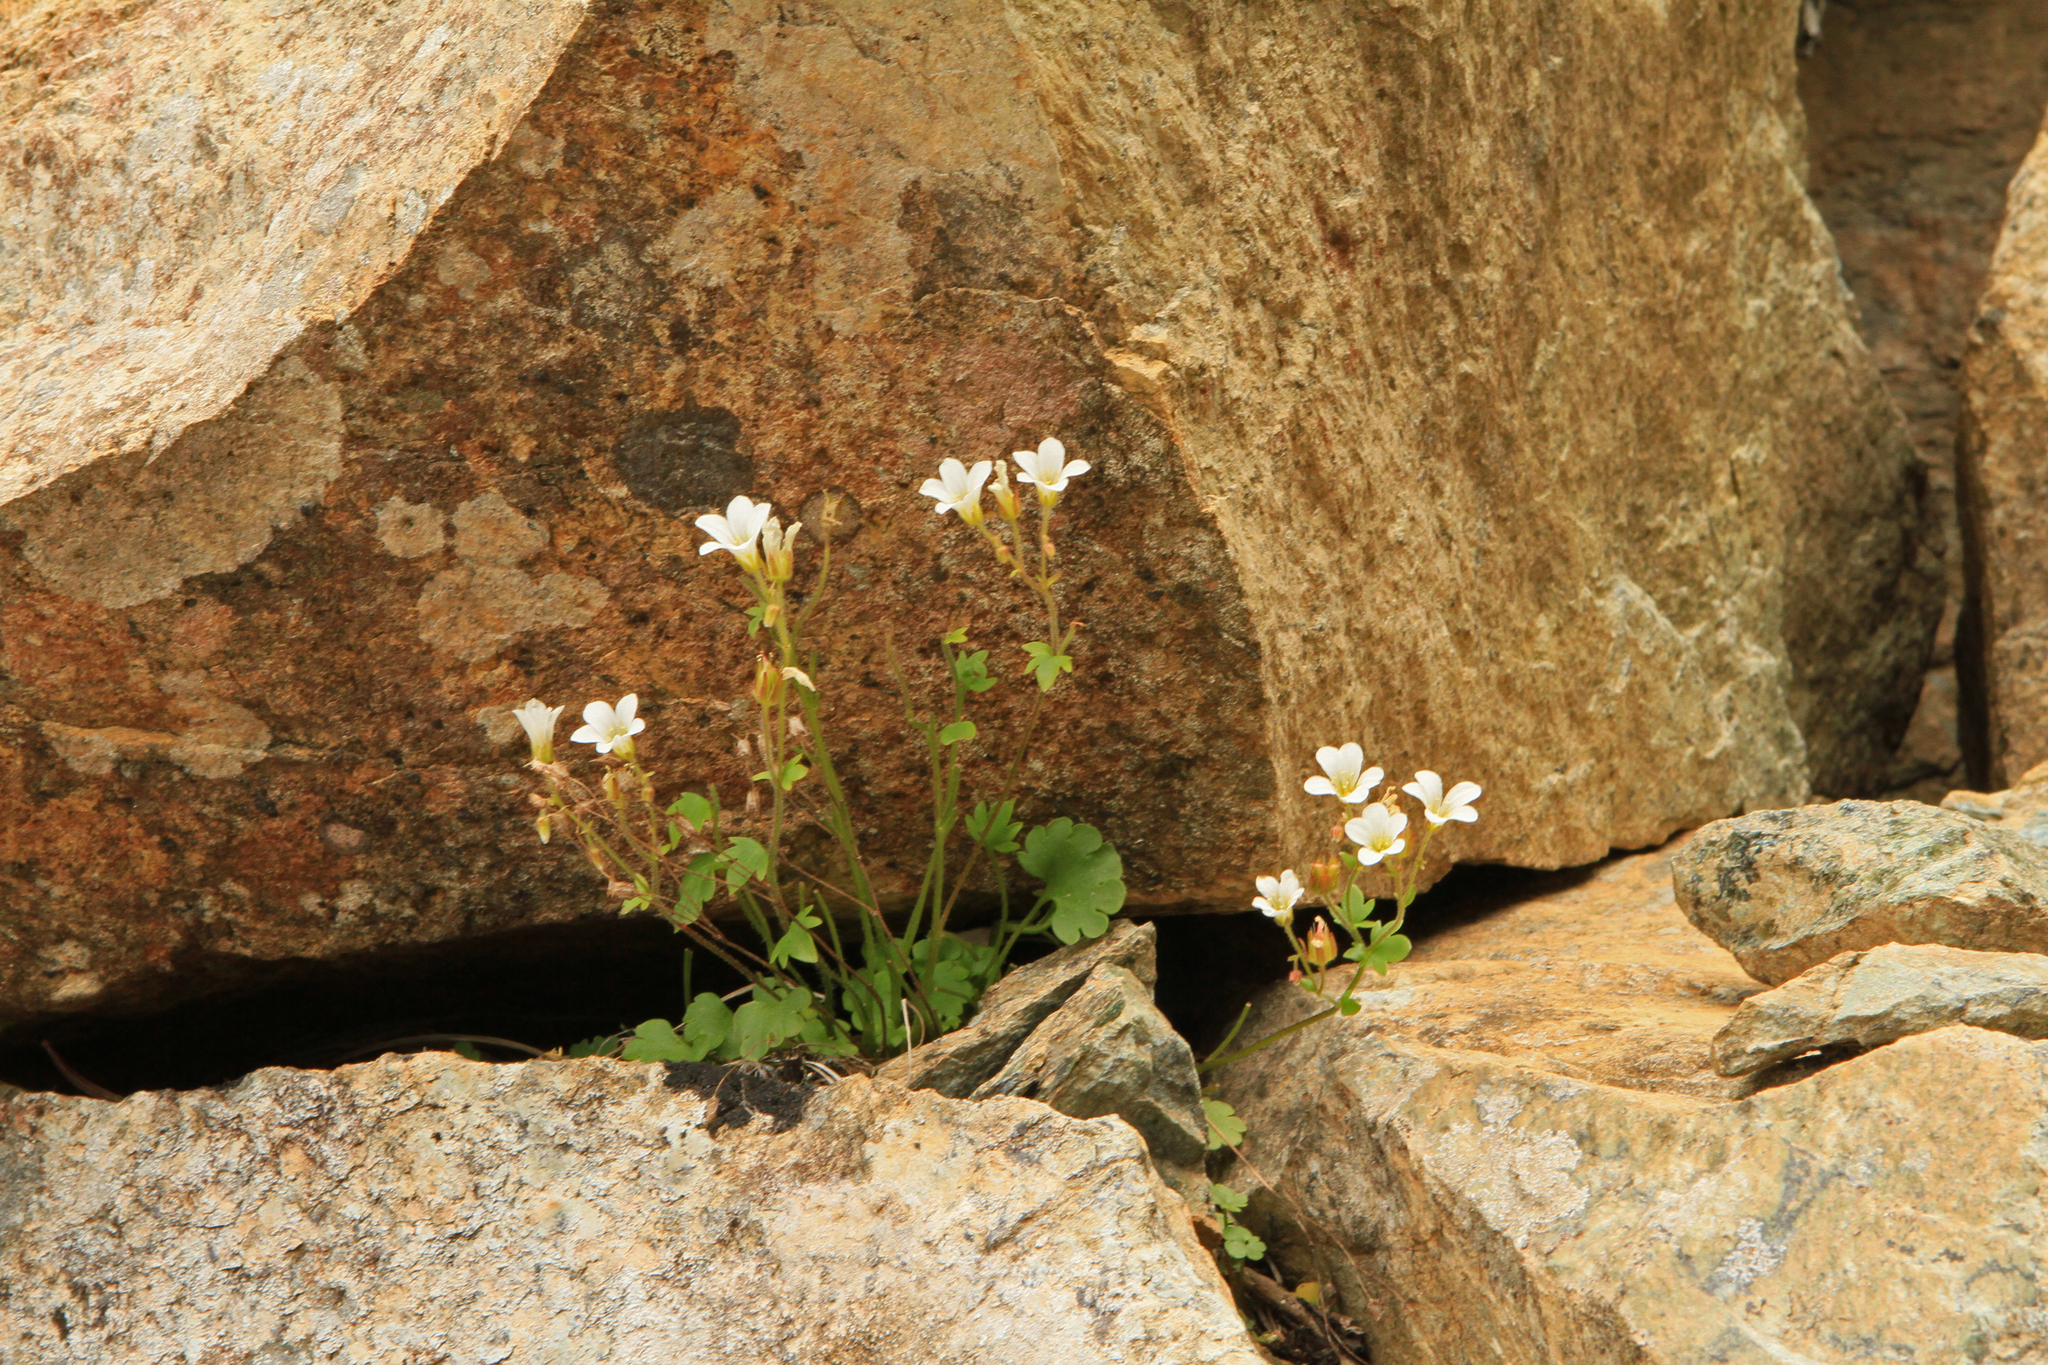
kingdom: Plantae
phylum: Tracheophyta
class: Magnoliopsida
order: Saxifragales
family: Saxifragaceae
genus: Saxifraga
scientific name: Saxifraga sibirica
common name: Siberian saxifrage
